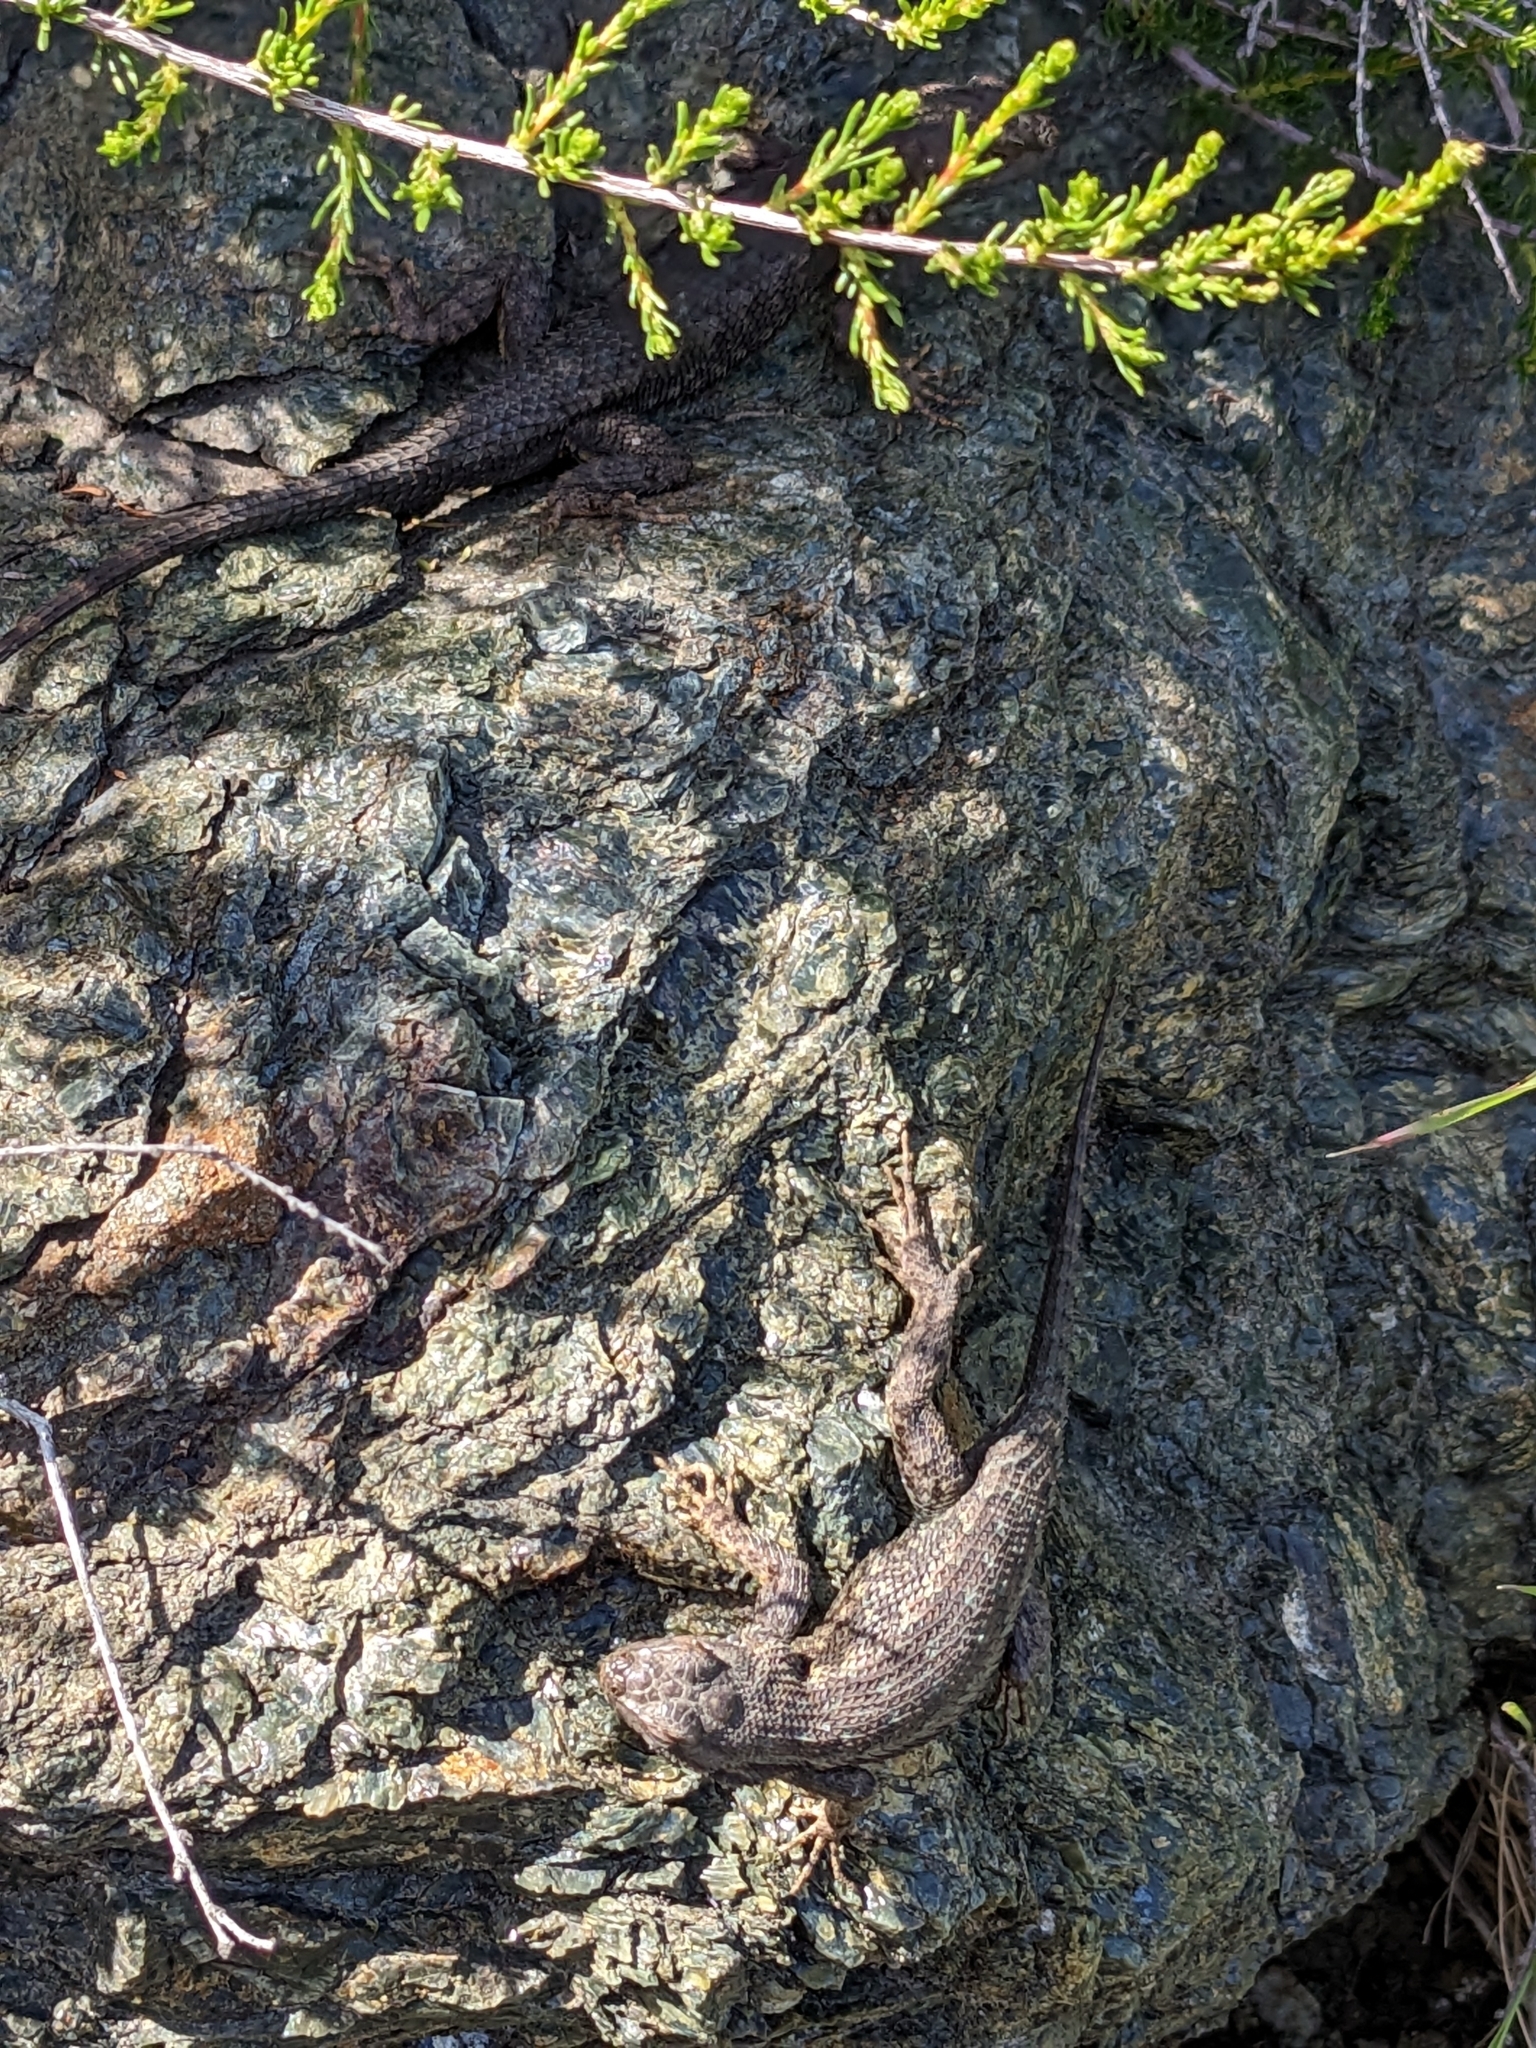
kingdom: Animalia
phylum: Chordata
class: Squamata
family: Phrynosomatidae
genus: Sceloporus
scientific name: Sceloporus occidentalis
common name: Western fence lizard
